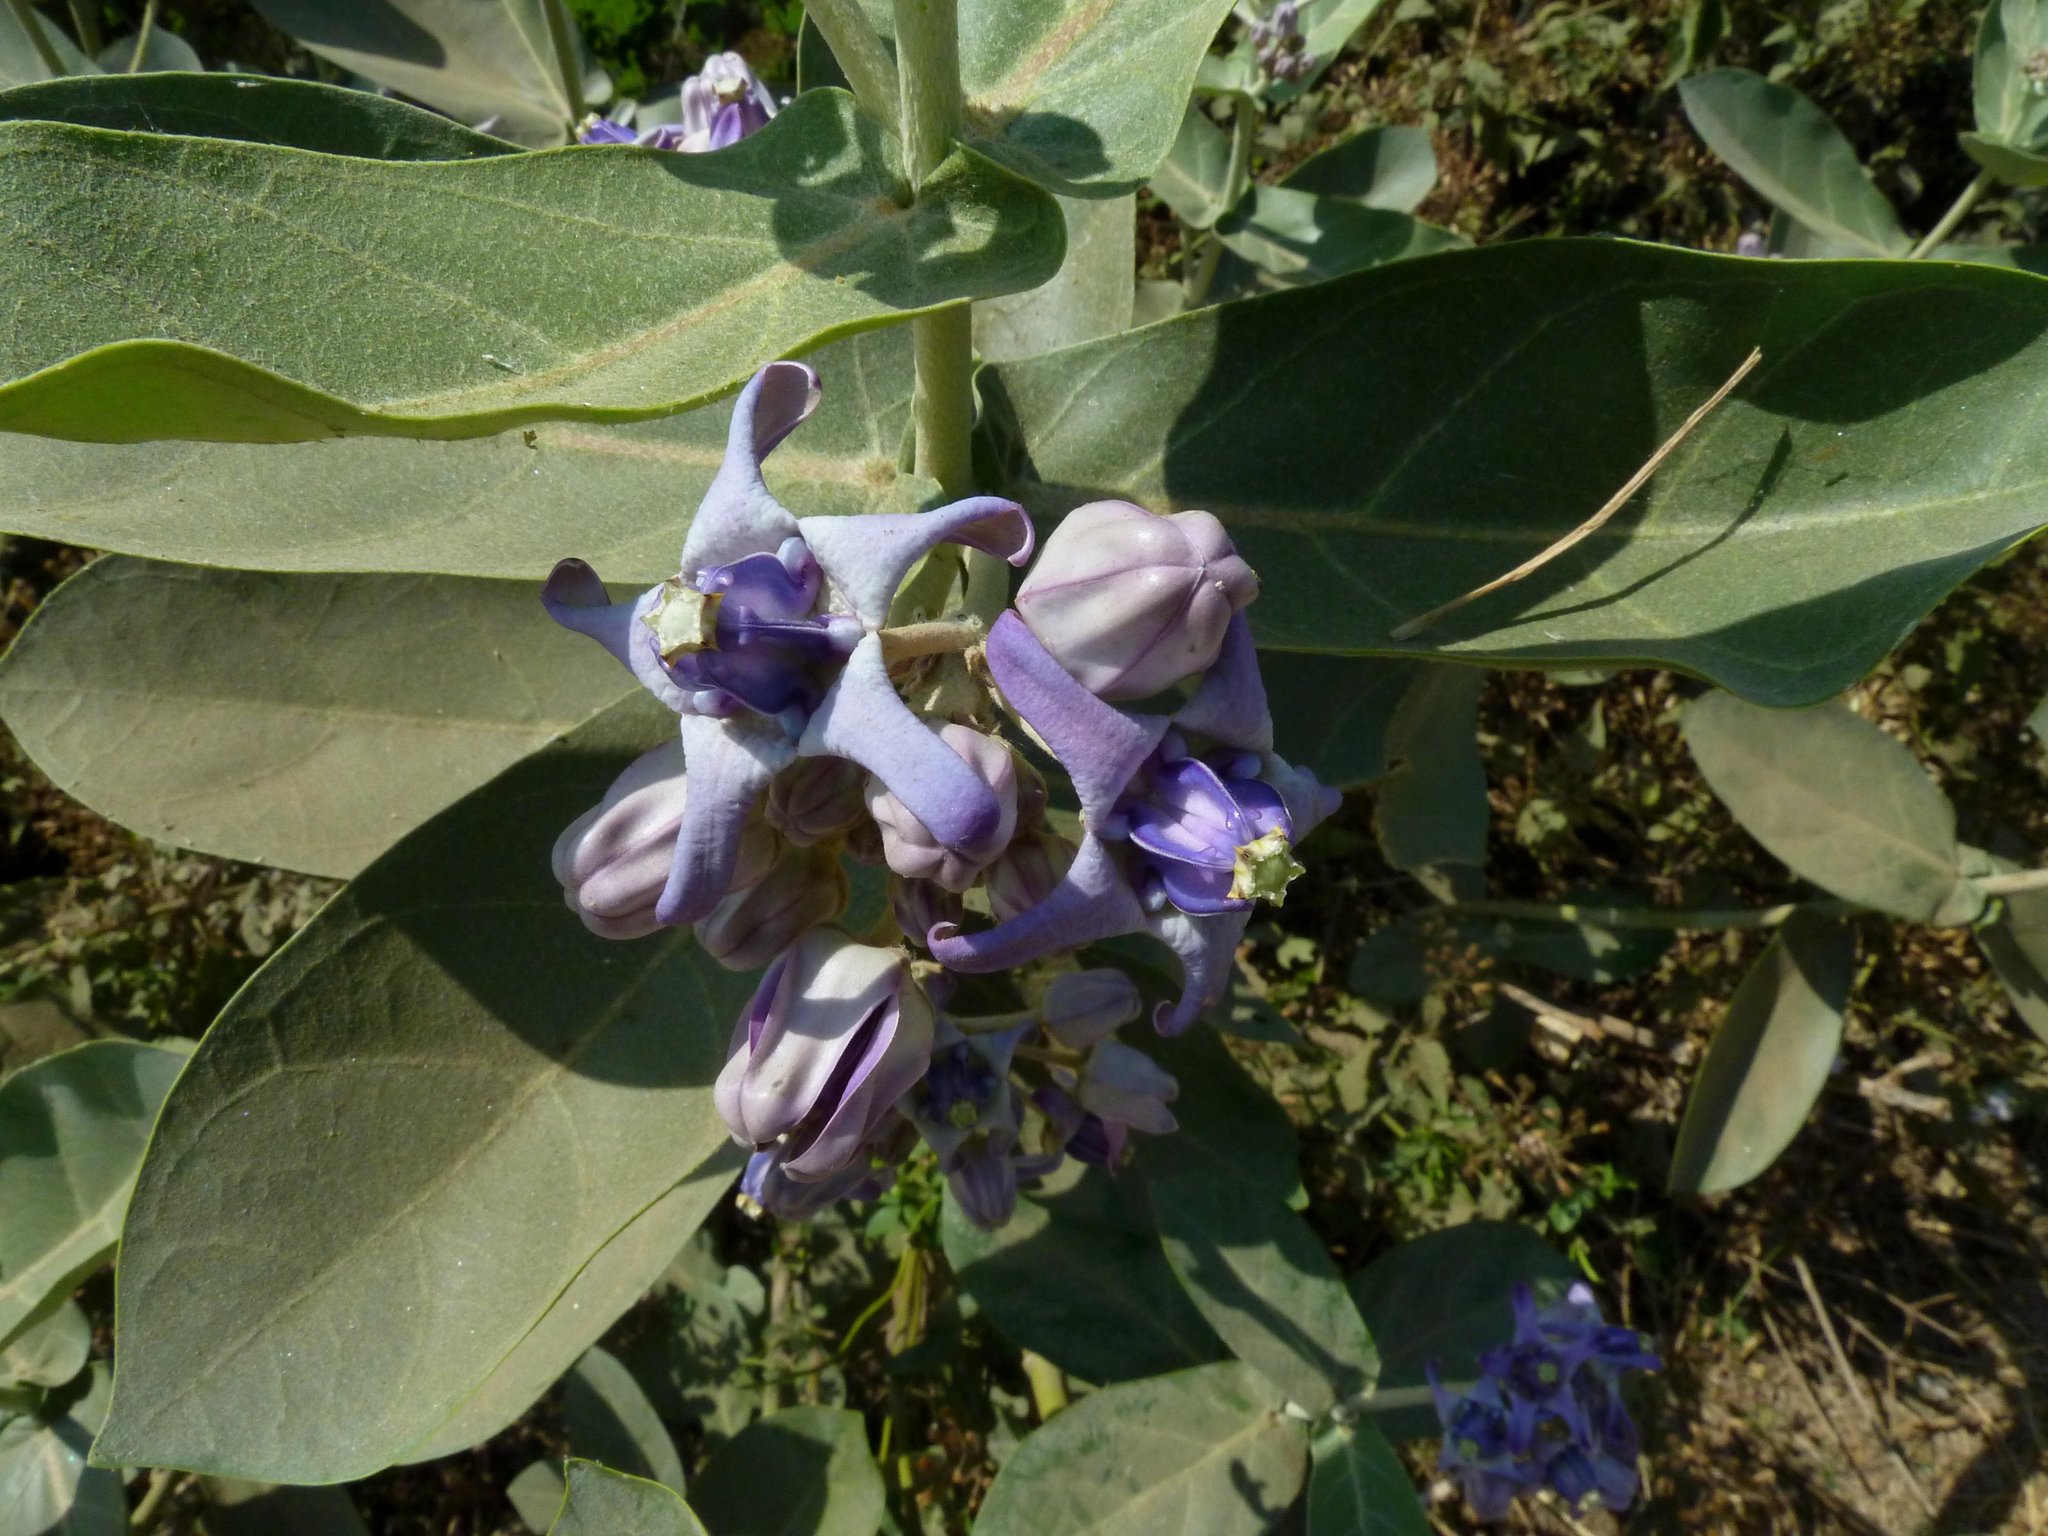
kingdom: Plantae
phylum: Tracheophyta
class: Magnoliopsida
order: Gentianales
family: Apocynaceae
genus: Calotropis
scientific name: Calotropis gigantea
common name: Crown flower
